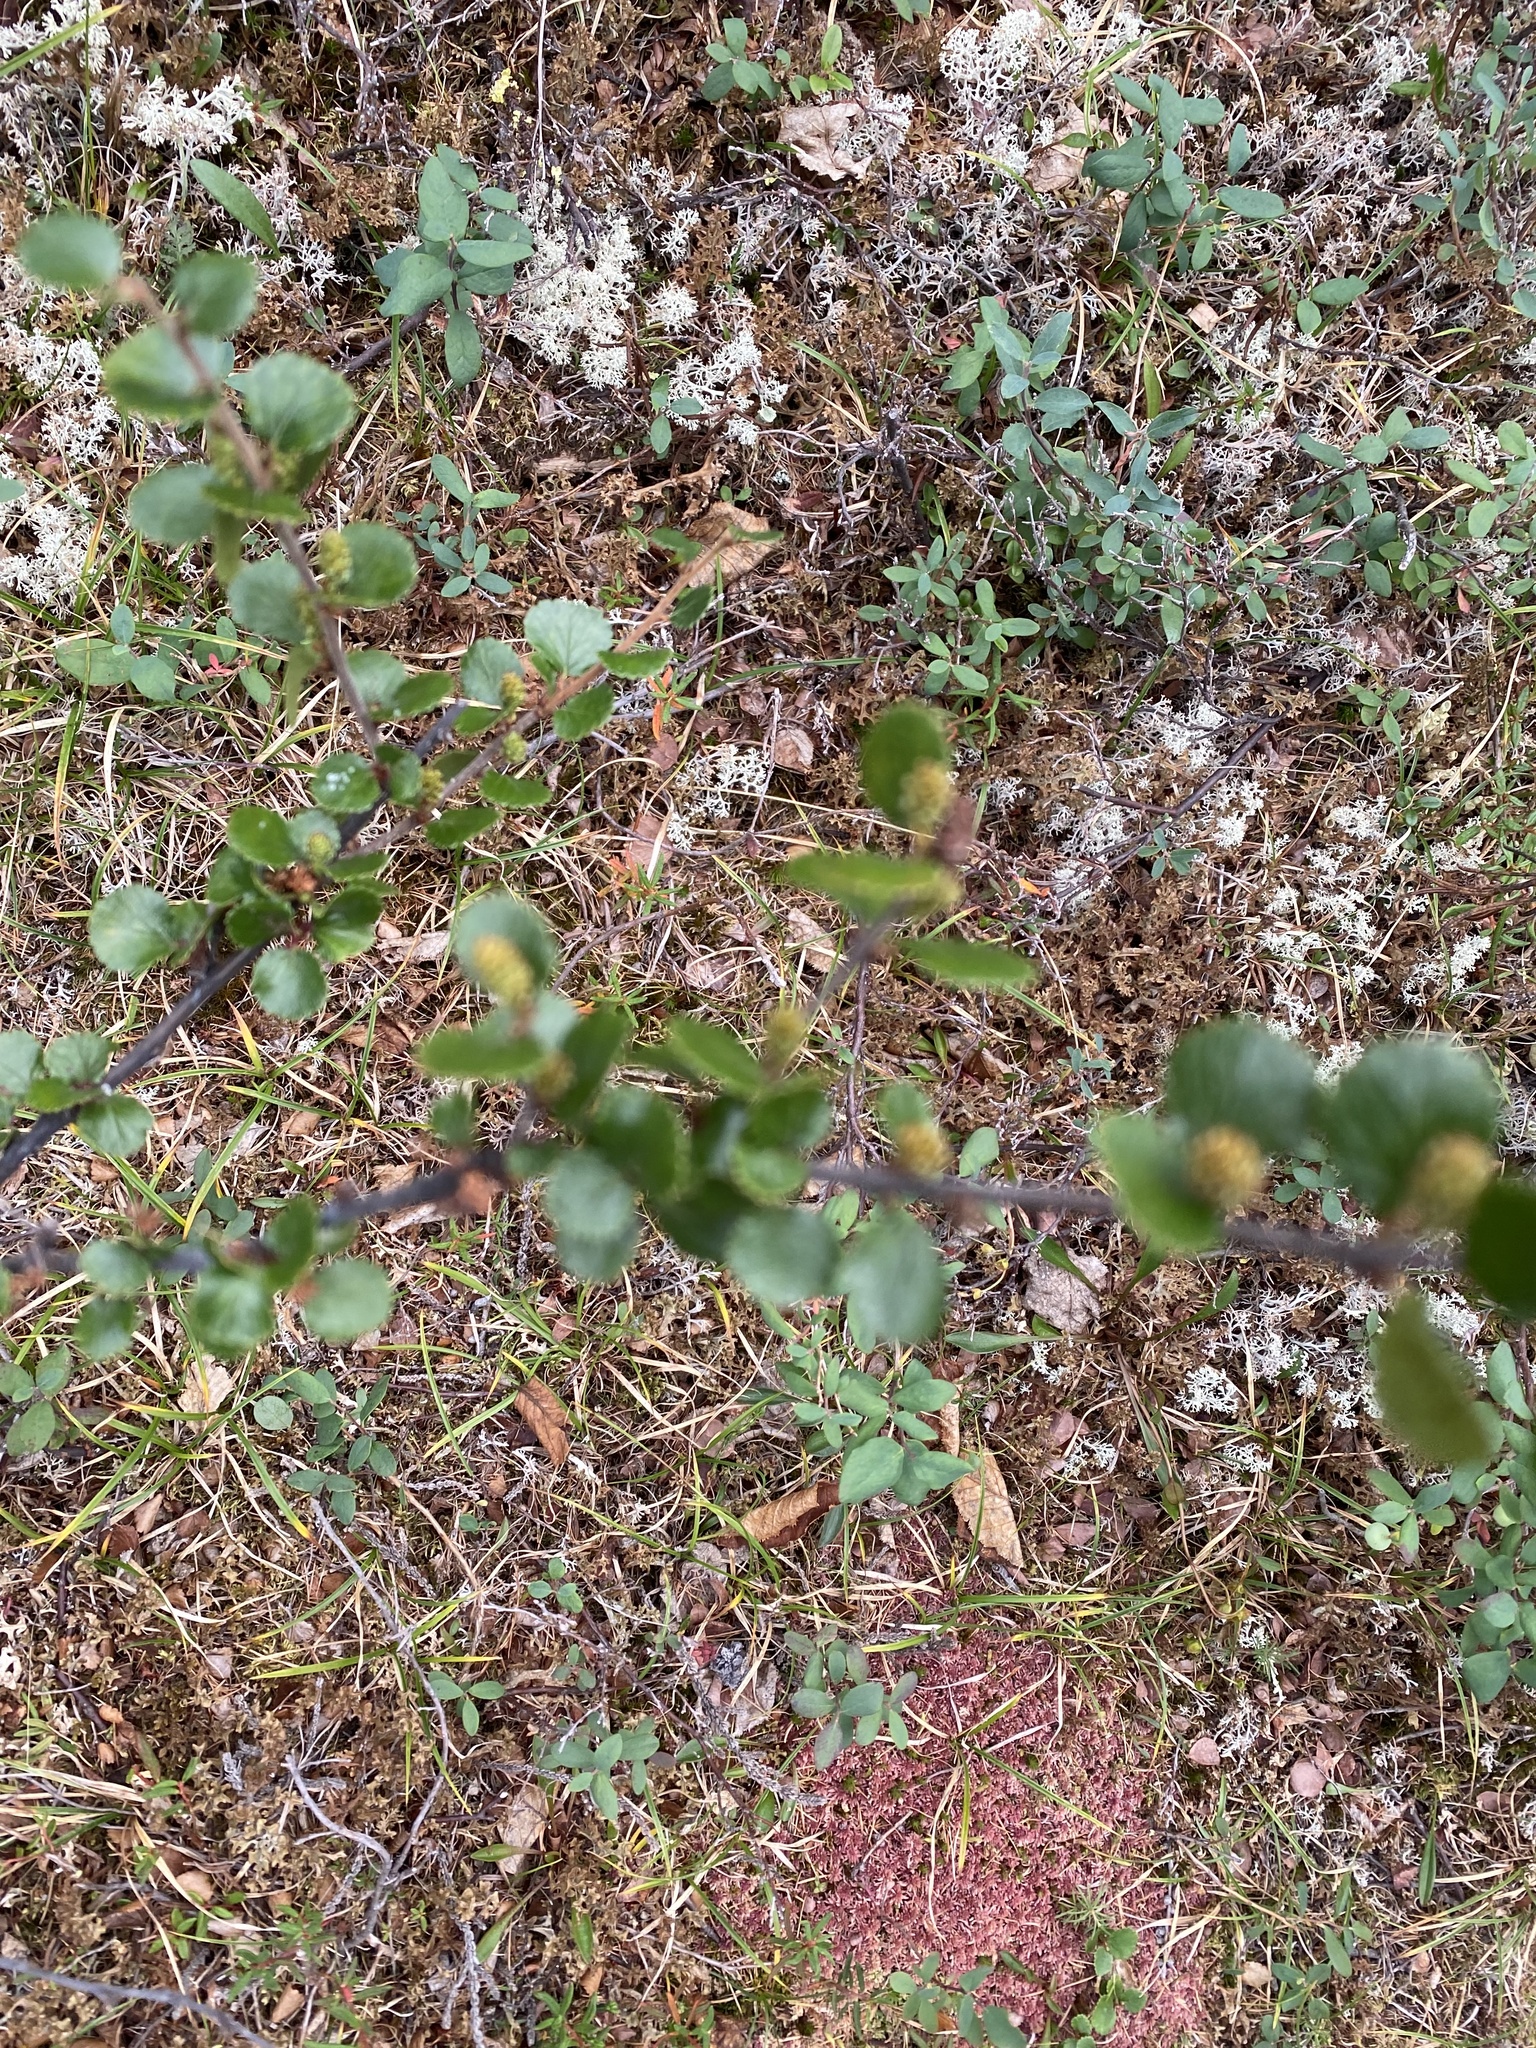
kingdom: Plantae
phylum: Tracheophyta
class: Magnoliopsida
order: Fagales
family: Betulaceae
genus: Betula
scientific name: Betula nana
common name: Arctic dwarf birch
